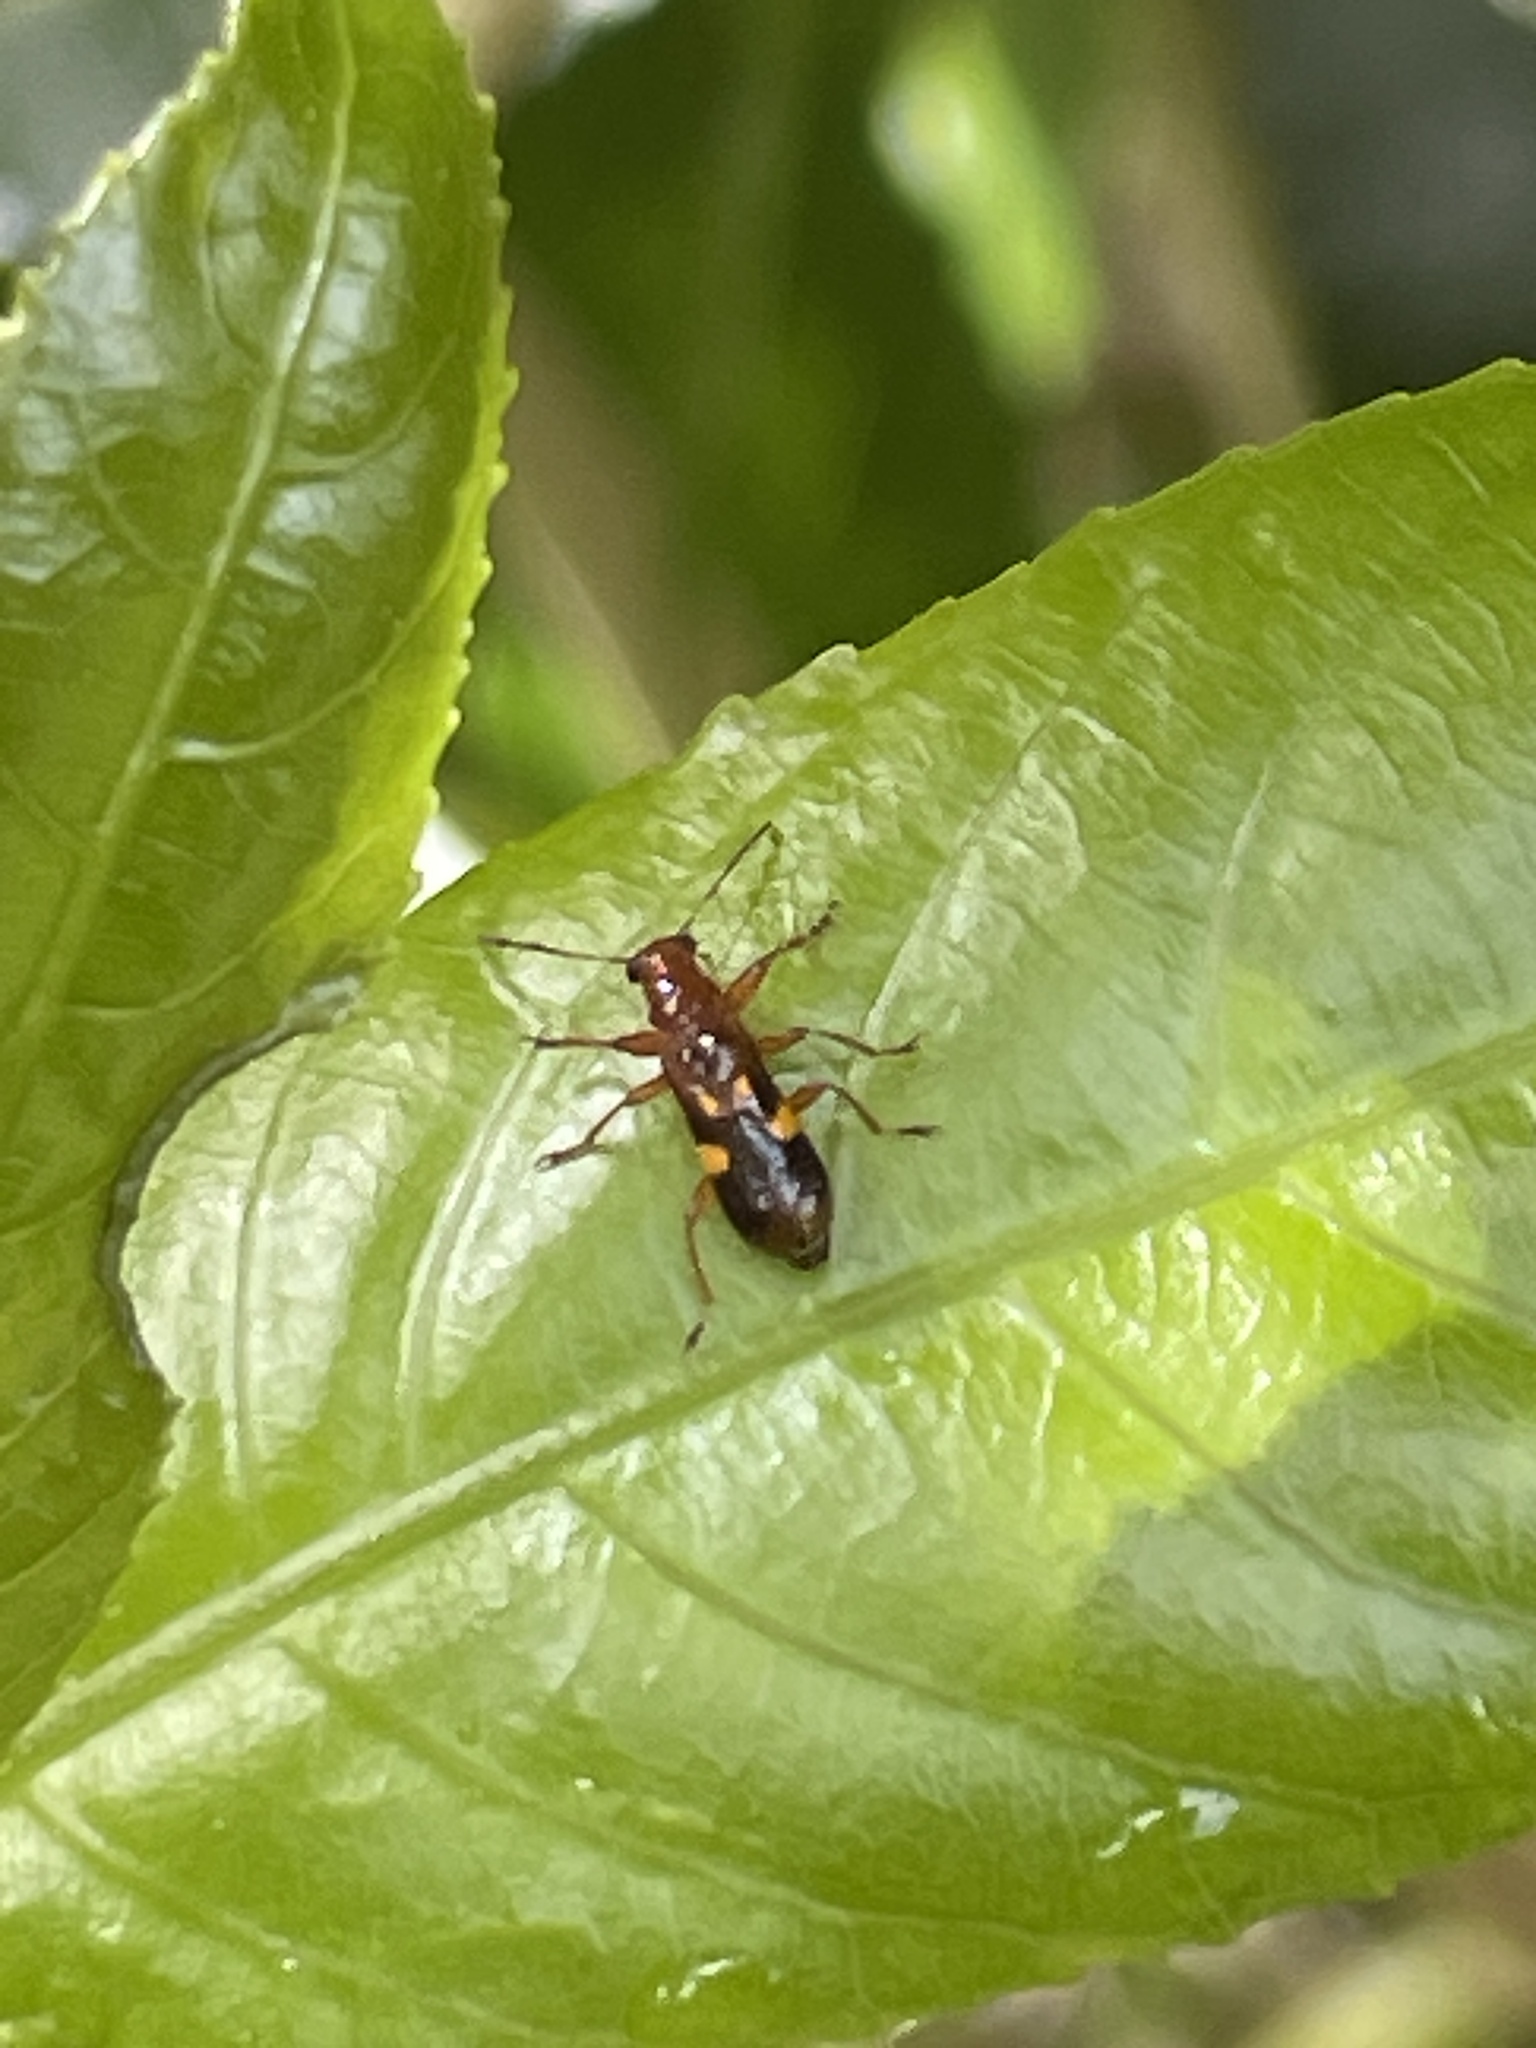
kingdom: Animalia
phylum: Arthropoda
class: Insecta
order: Coleoptera
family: Cleridae
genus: Phymatophaea
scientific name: Phymatophaea
